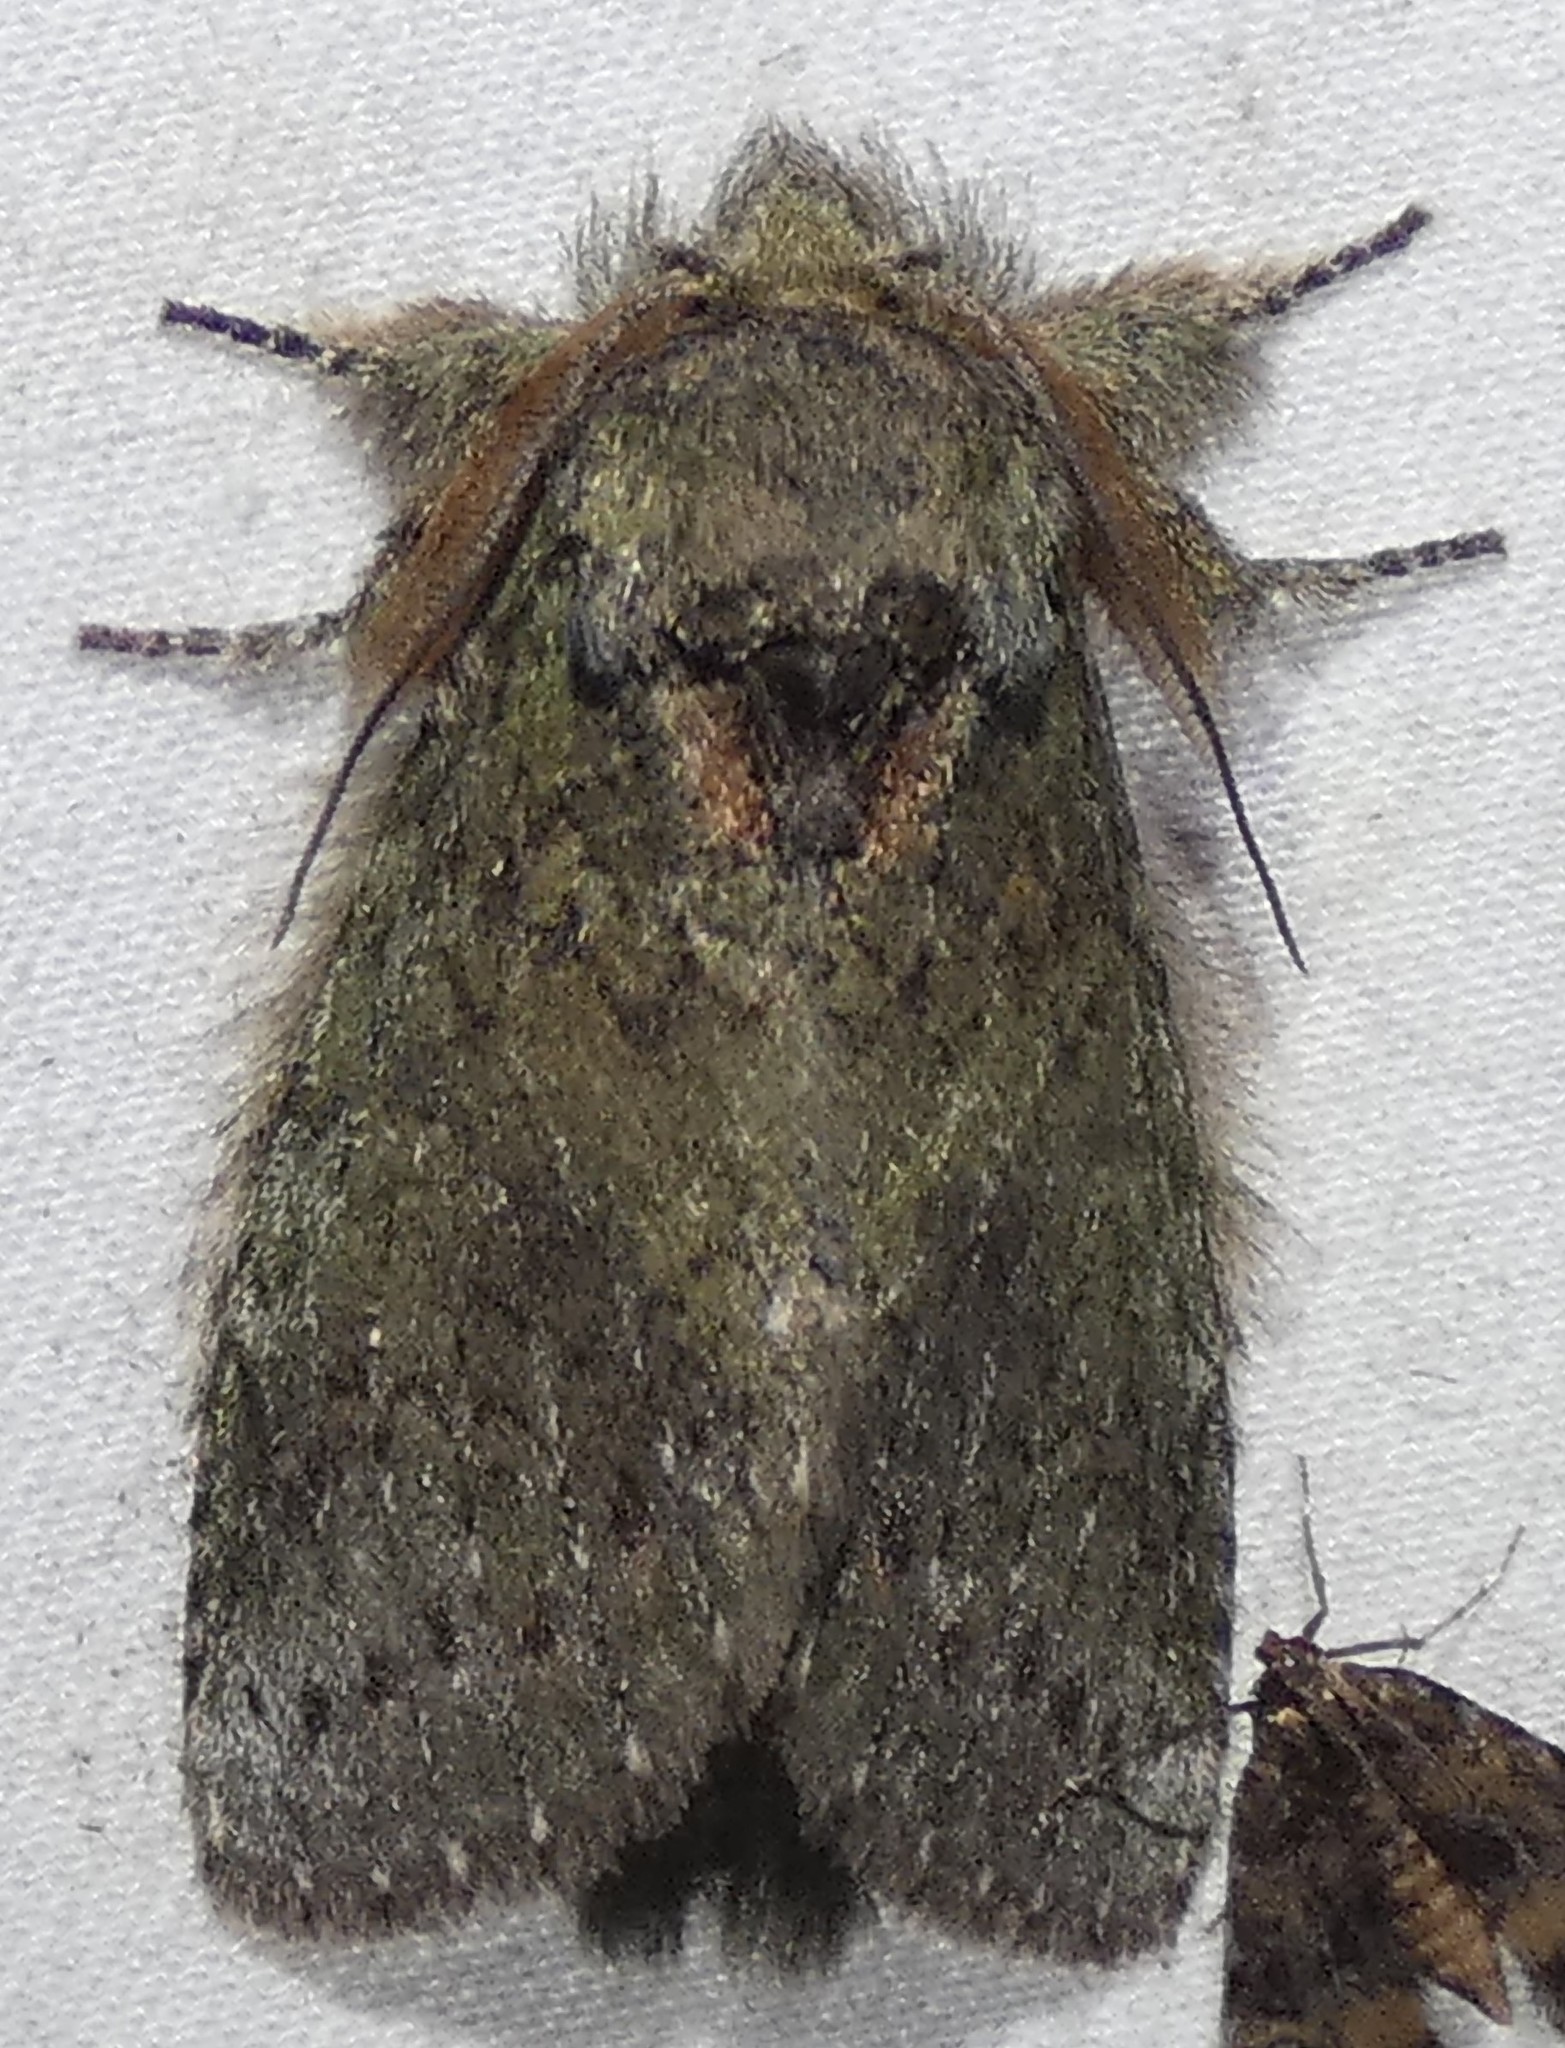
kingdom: Animalia
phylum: Arthropoda
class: Insecta
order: Lepidoptera
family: Notodontidae
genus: Disphragis
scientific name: Disphragis Cecrita biundata
